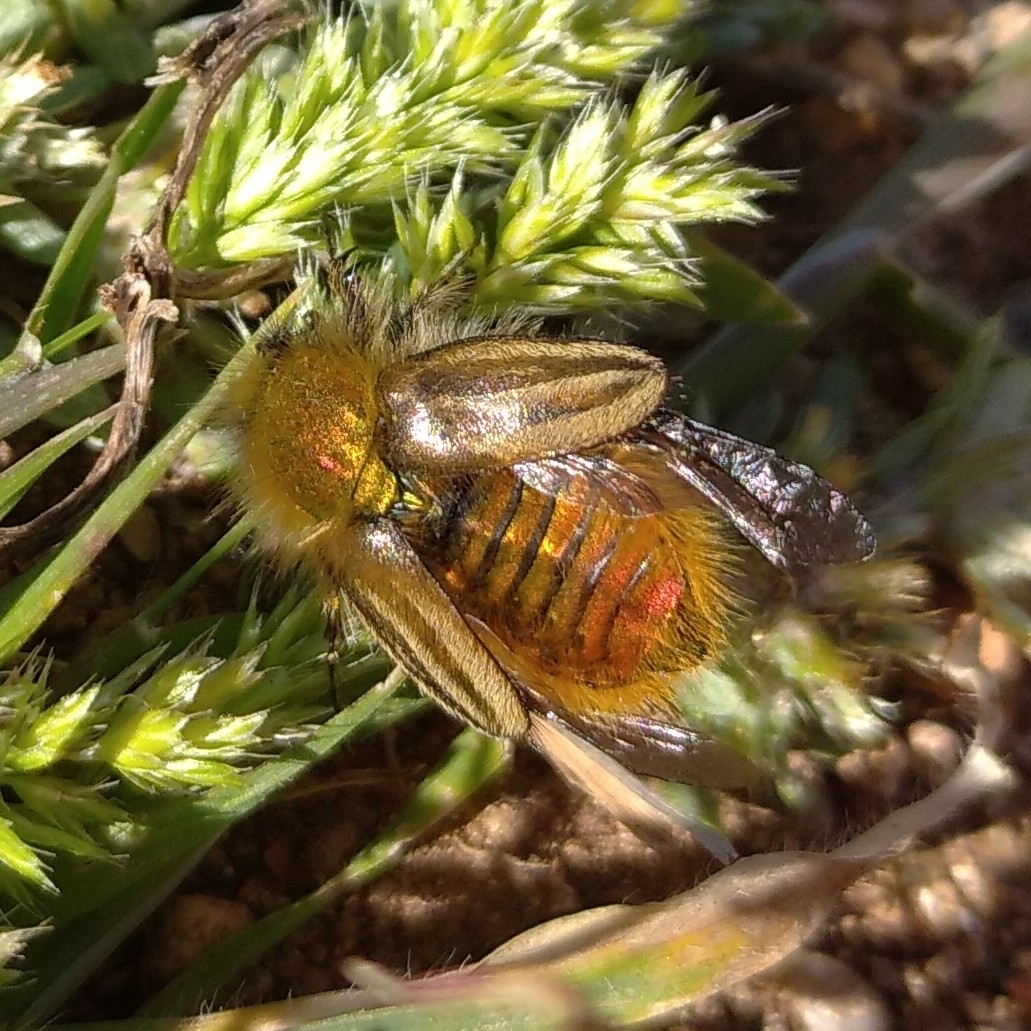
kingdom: Animalia
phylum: Arthropoda
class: Insecta
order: Coleoptera
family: Glaphyridae
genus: Eulasia
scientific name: Eulasia pareyssei
